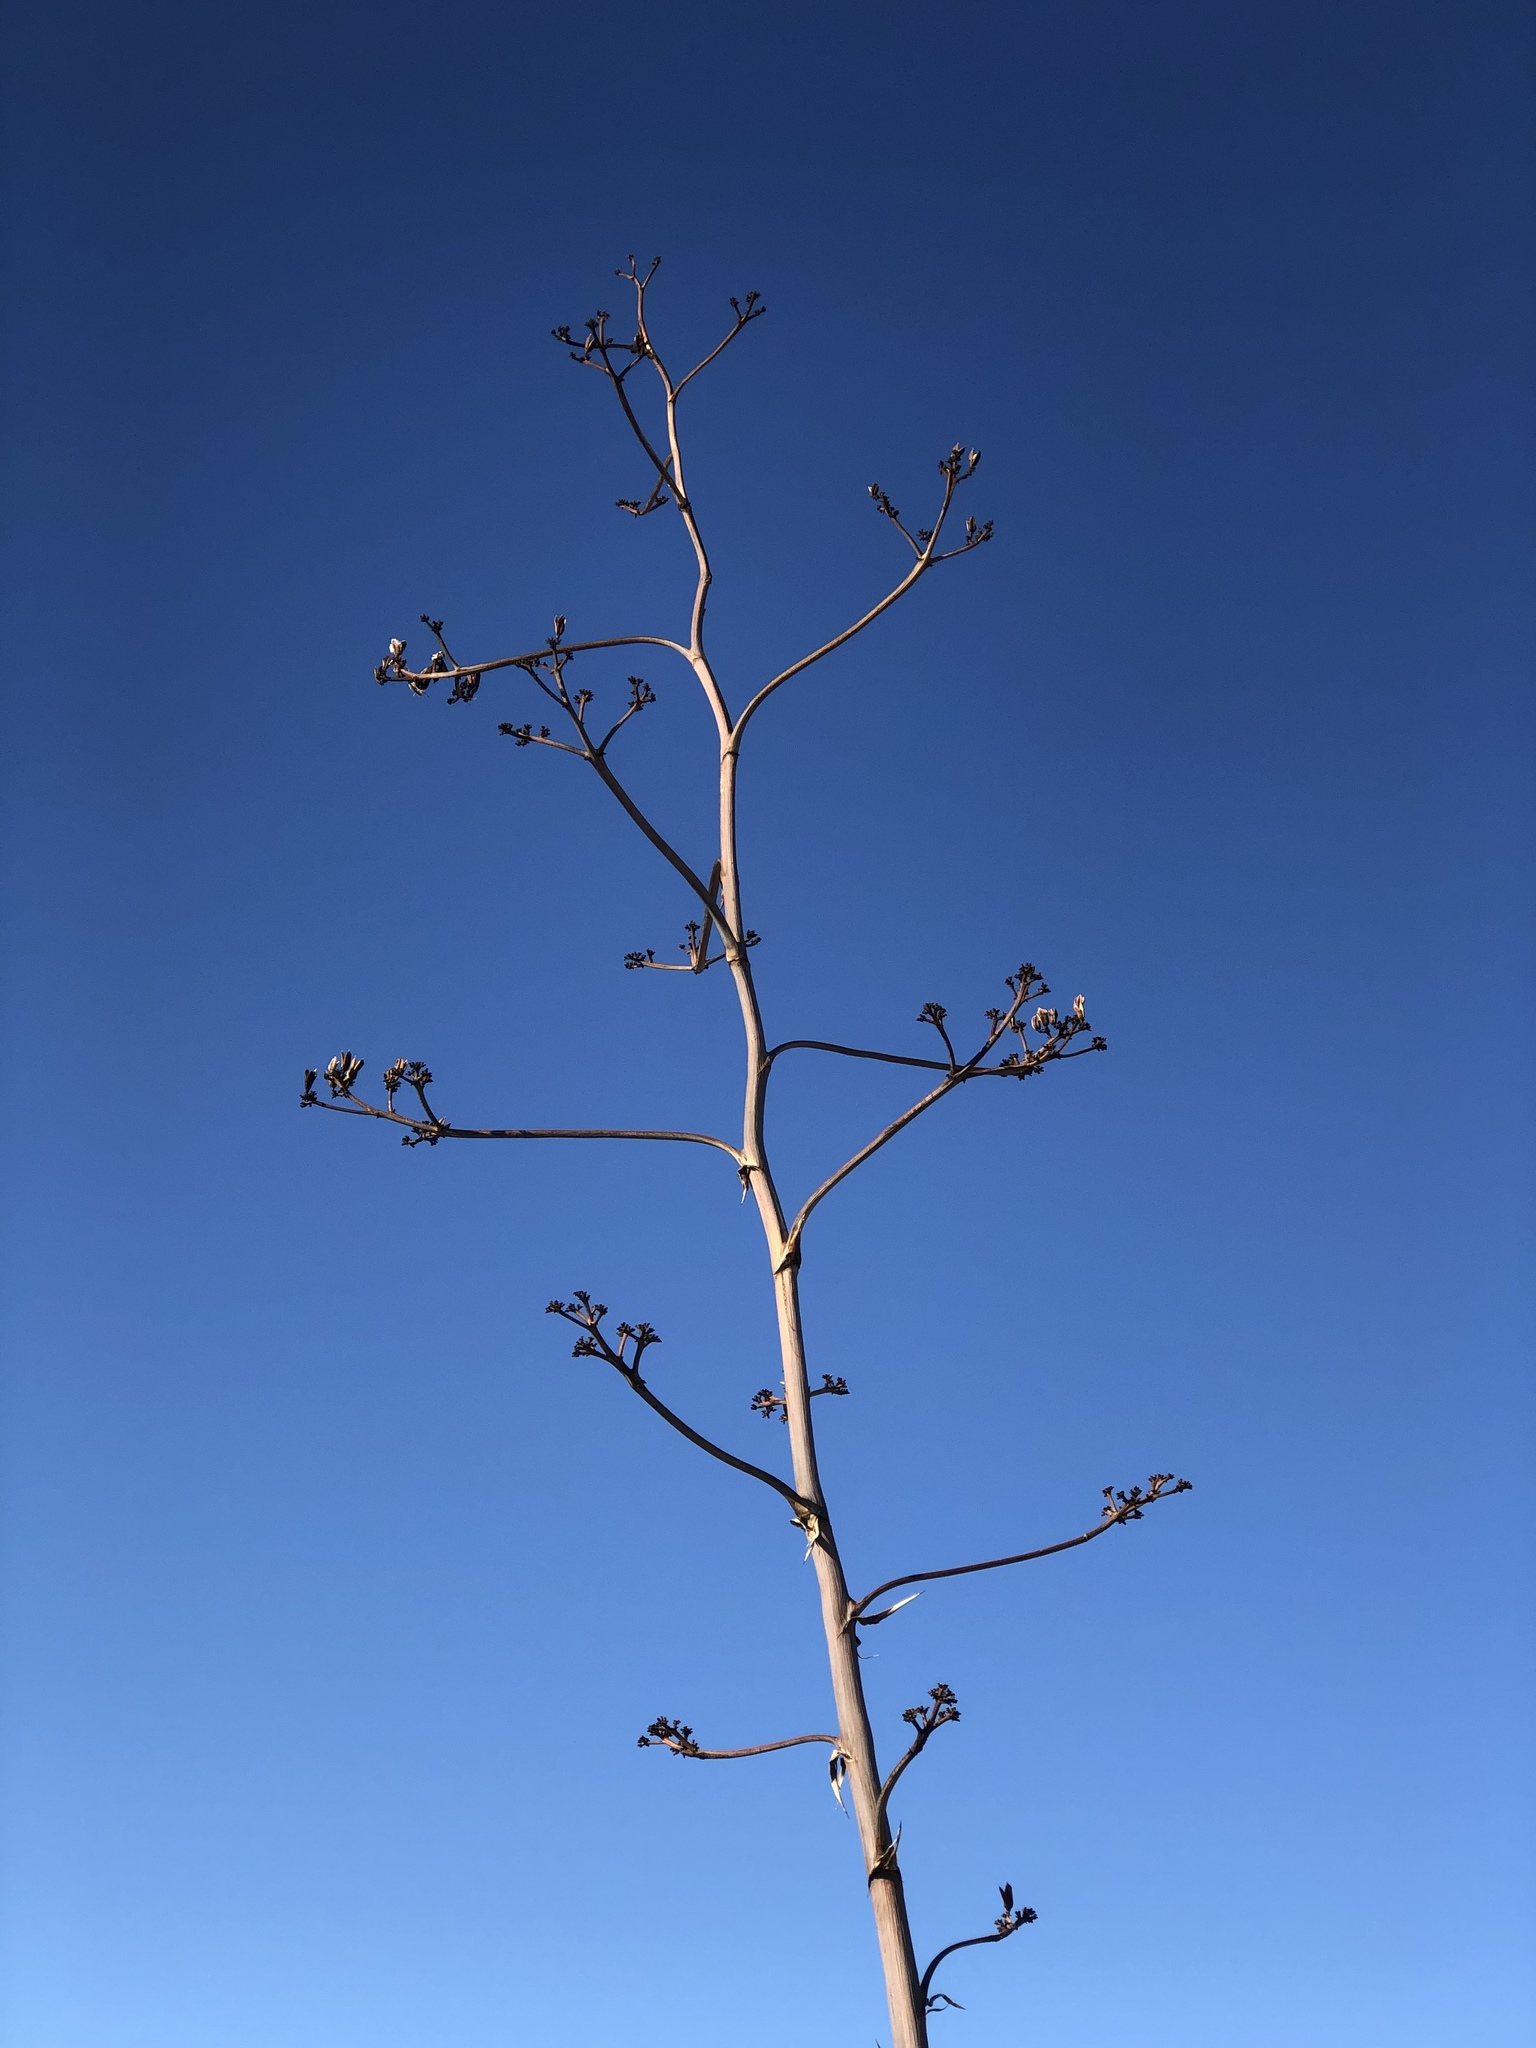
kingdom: Plantae
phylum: Tracheophyta
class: Liliopsida
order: Asparagales
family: Asparagaceae
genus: Agave
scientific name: Agave palmeri
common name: Palmer agave
